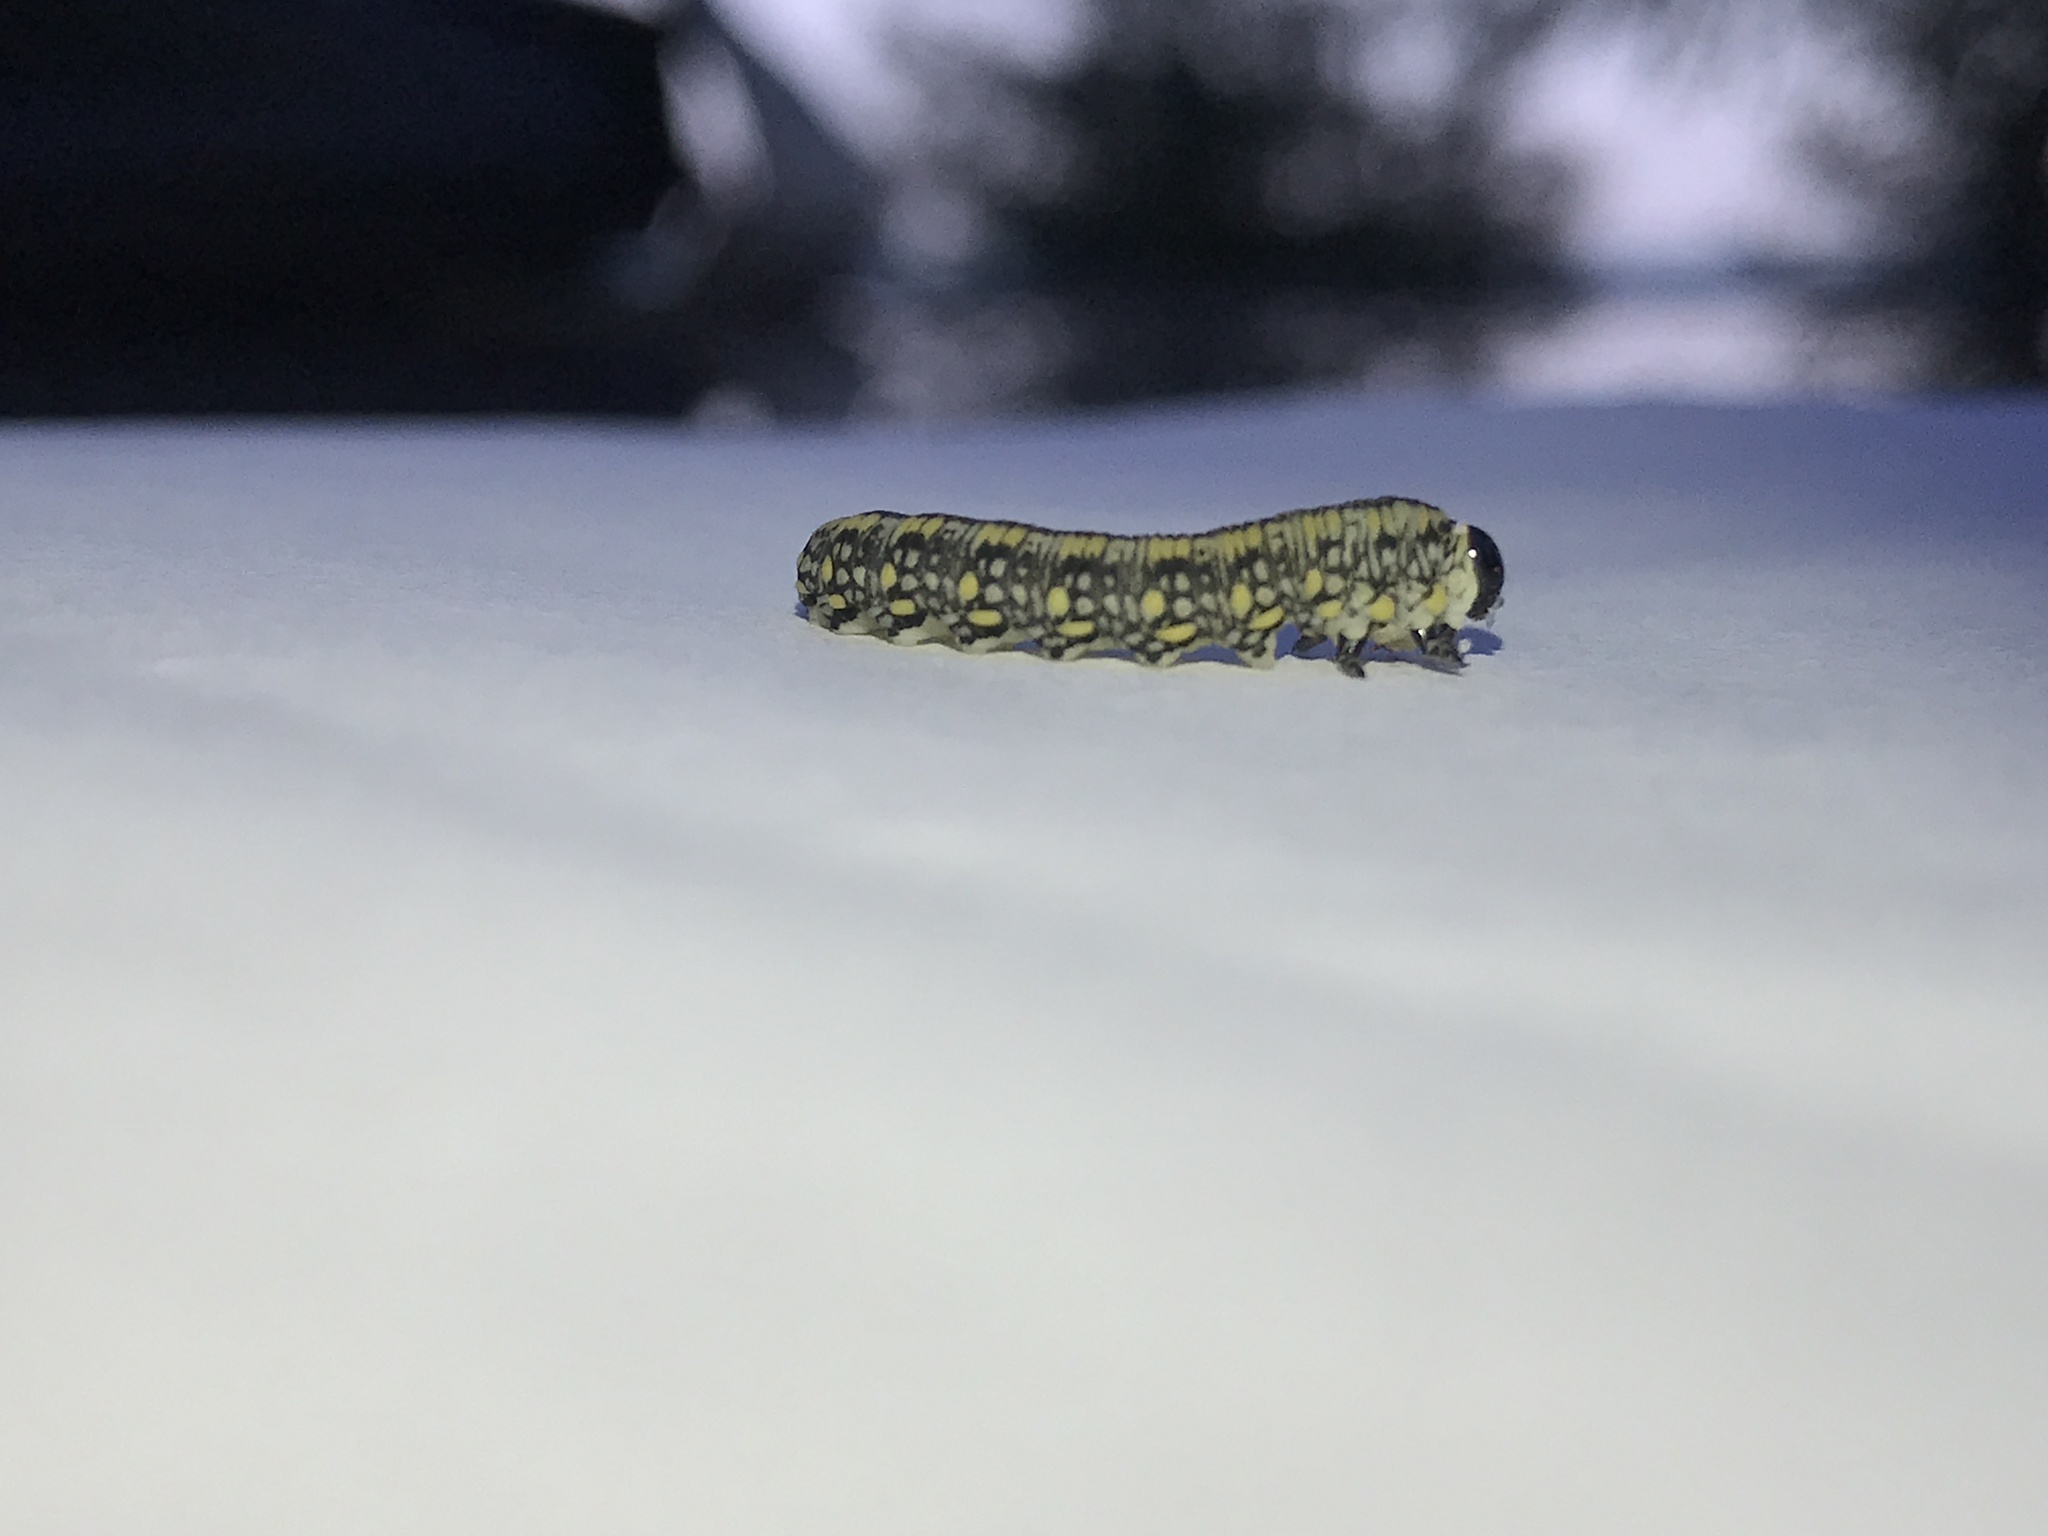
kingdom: Animalia
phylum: Arthropoda
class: Insecta
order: Hymenoptera
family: Diprionidae
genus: Diprion
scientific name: Diprion similis
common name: Pine sawfly
